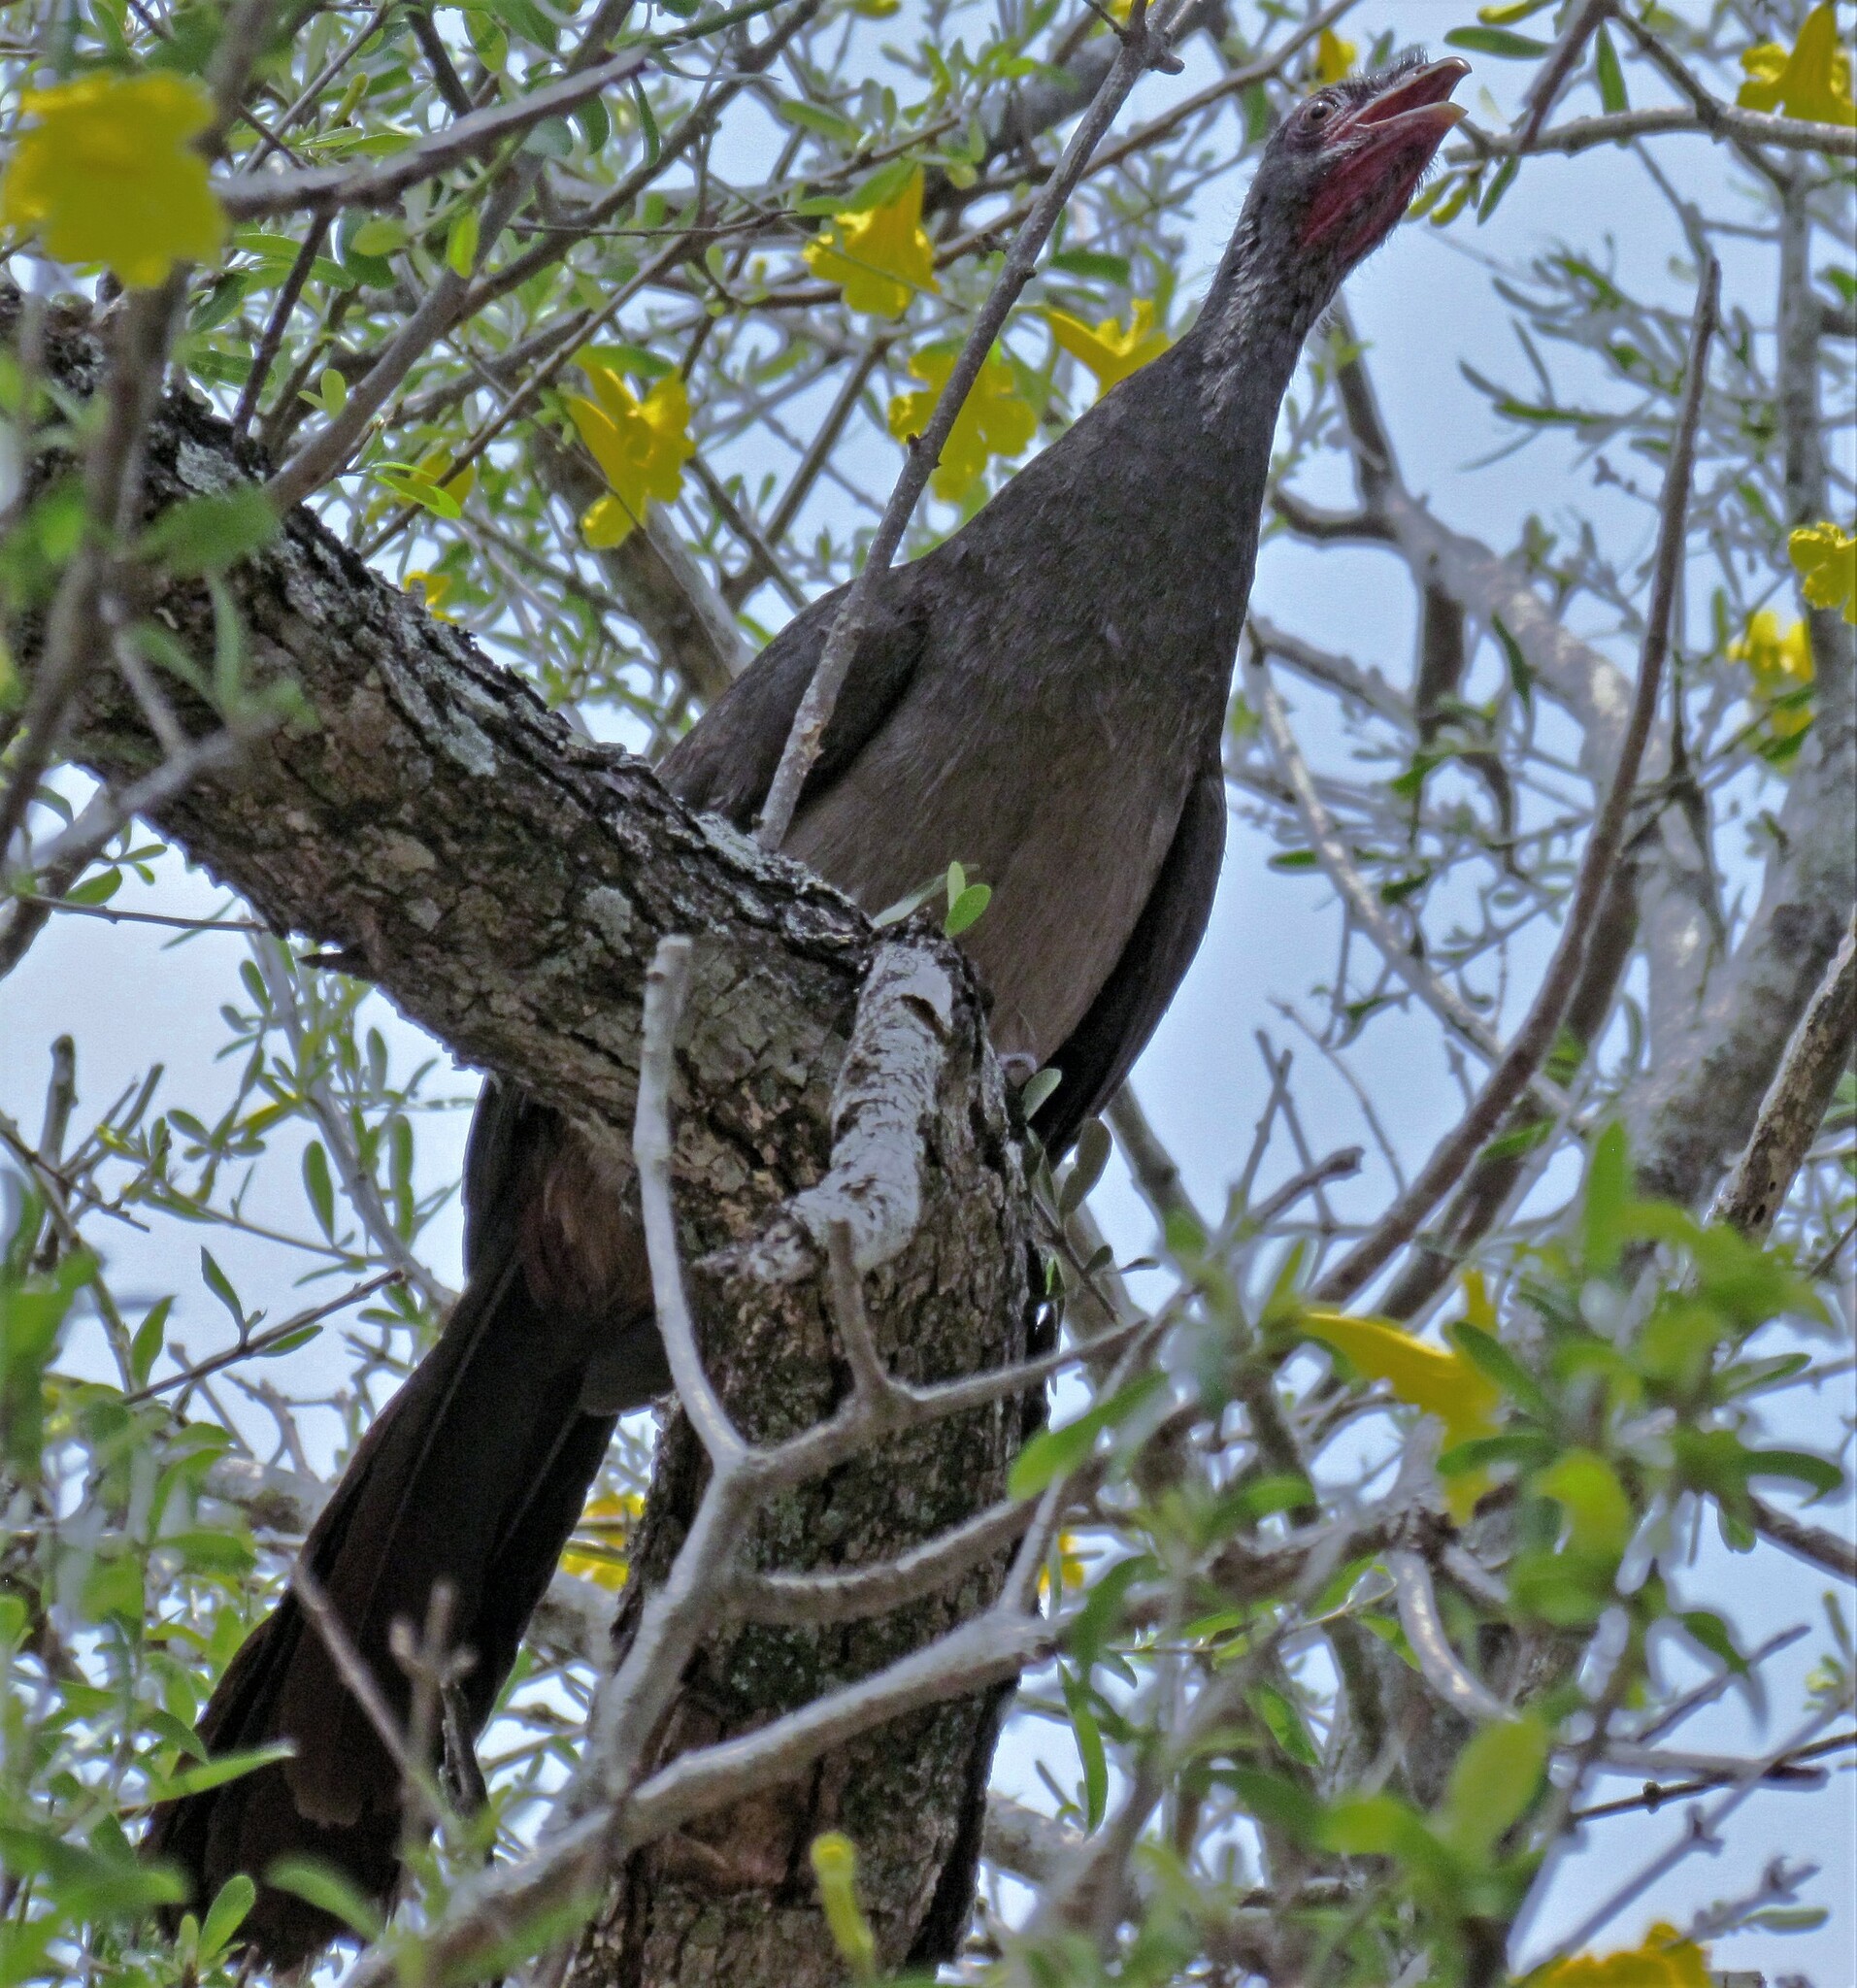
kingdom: Animalia
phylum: Chordata
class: Aves
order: Galliformes
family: Cracidae
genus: Ortalis
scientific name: Ortalis canicollis
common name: Chaco chachalaca
